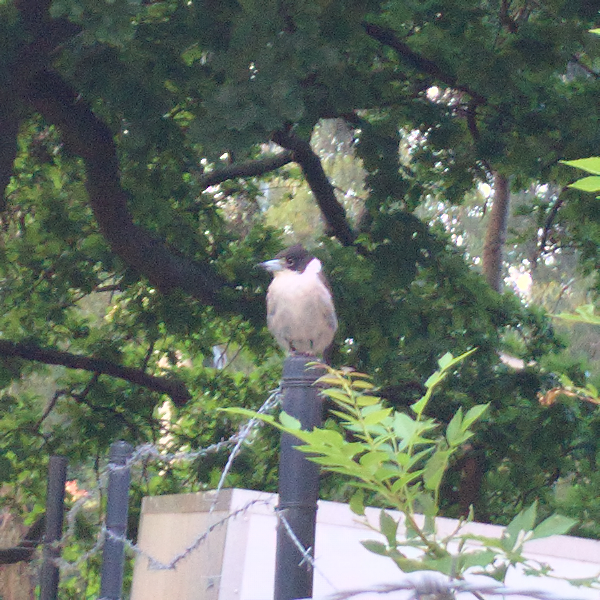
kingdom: Animalia
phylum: Chordata
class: Aves
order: Passeriformes
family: Cracticidae
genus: Cracticus
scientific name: Cracticus torquatus
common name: Grey butcherbird
